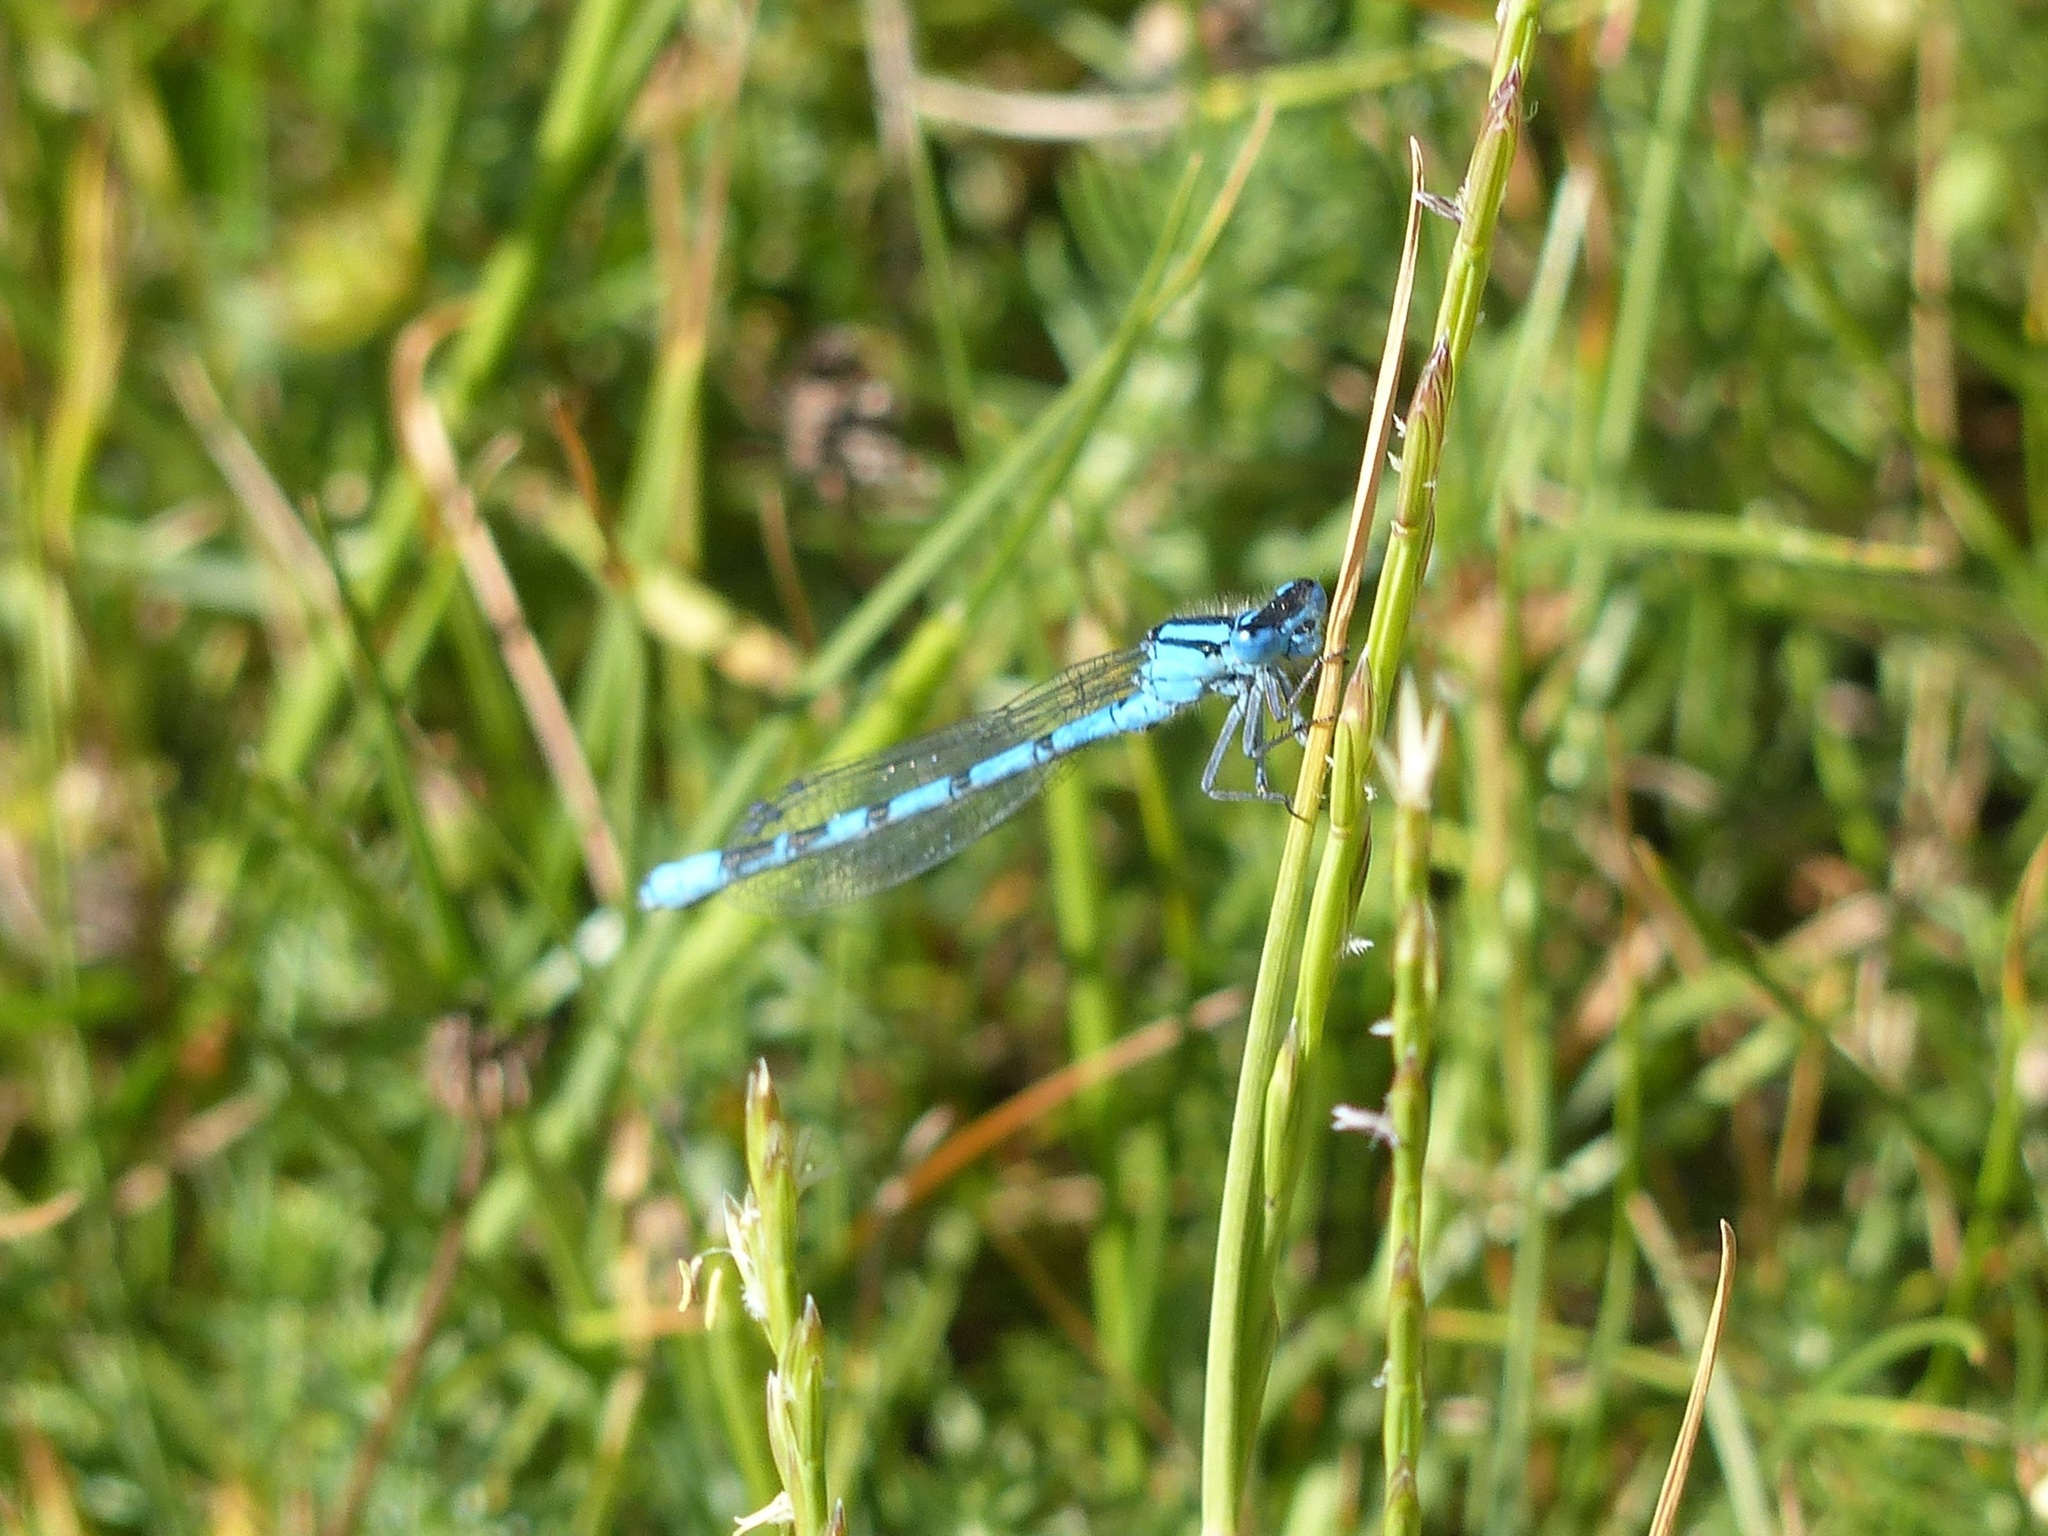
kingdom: Animalia
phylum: Arthropoda
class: Insecta
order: Odonata
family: Coenagrionidae
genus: Enallagma
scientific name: Enallagma cyathigerum
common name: Common blue damselfly
